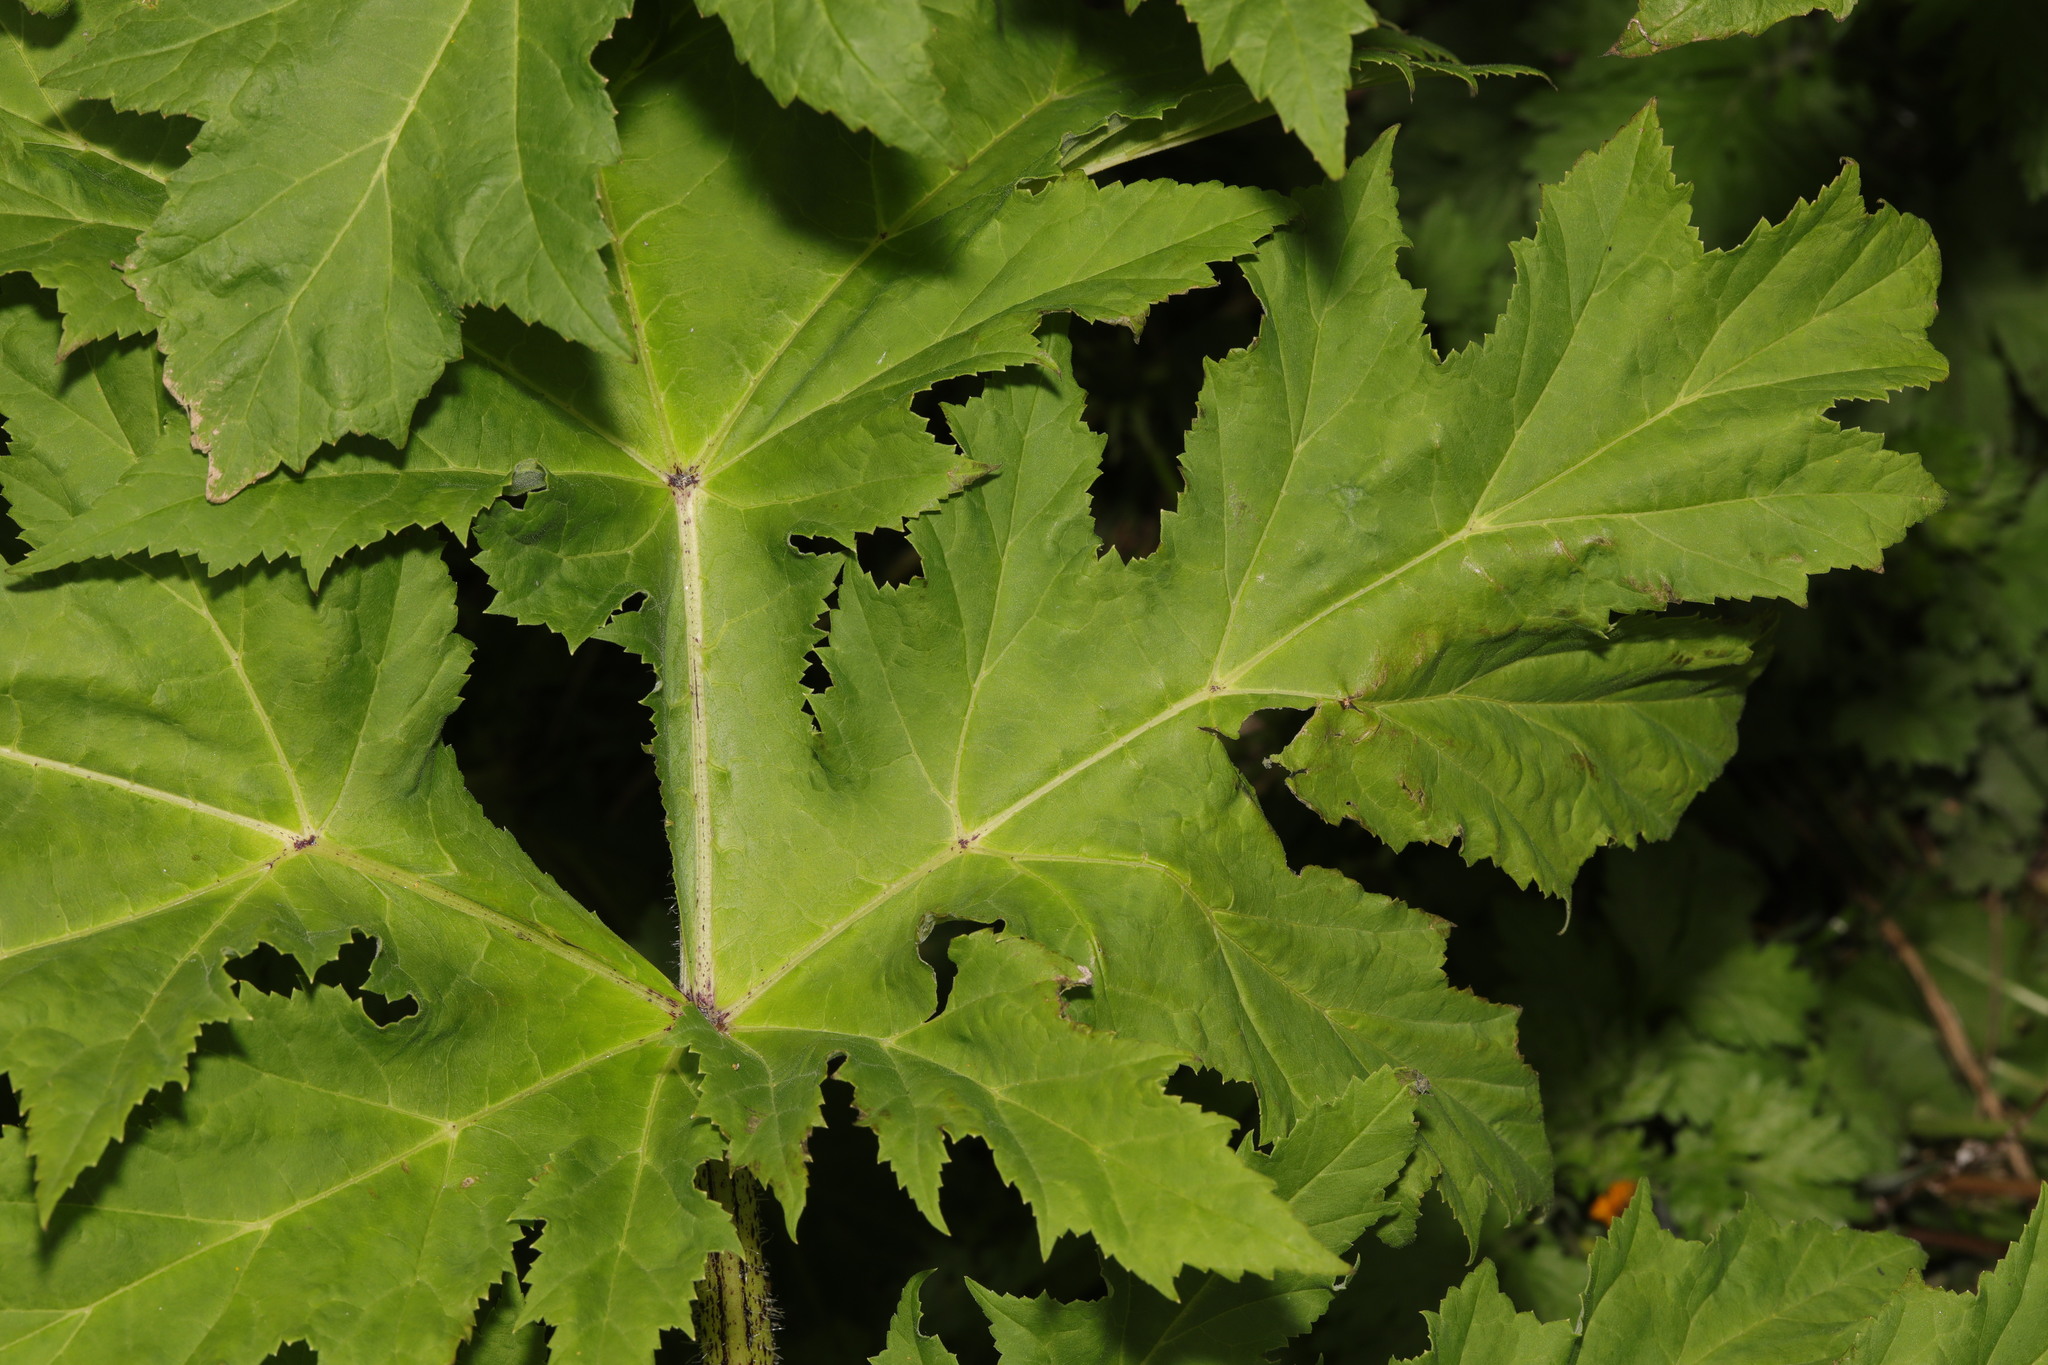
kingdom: Plantae
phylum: Tracheophyta
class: Magnoliopsida
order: Apiales
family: Apiaceae
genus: Heracleum
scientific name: Heracleum mantegazzianum
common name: Giant hogweed
